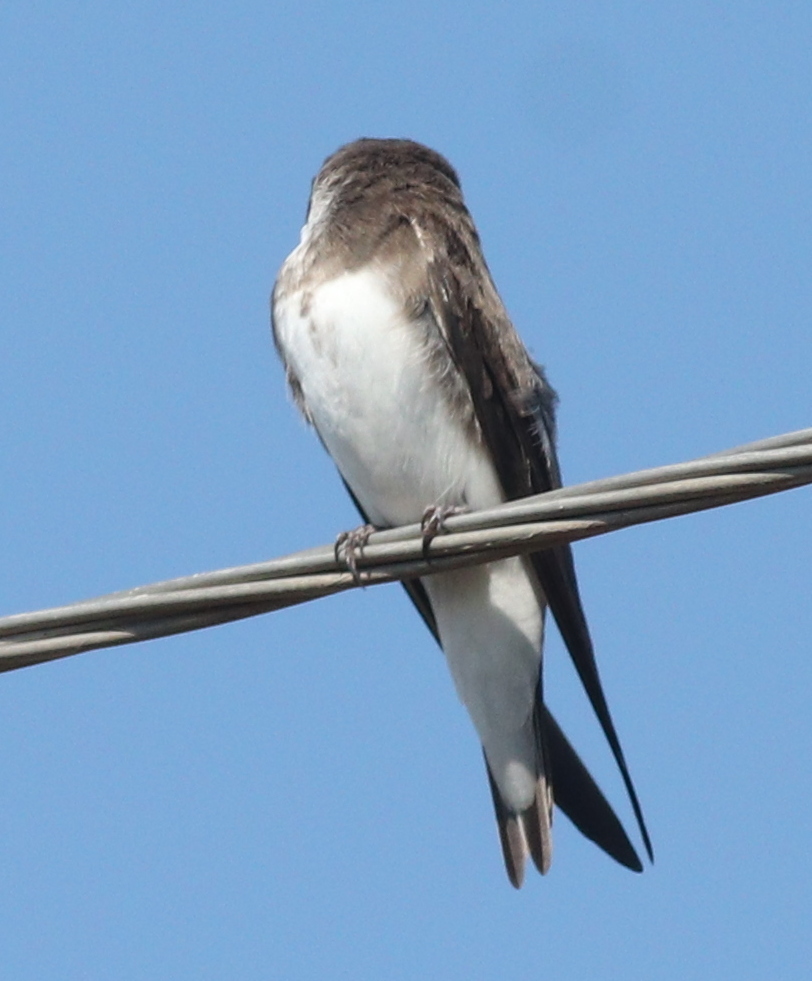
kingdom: Animalia
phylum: Chordata
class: Aves
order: Passeriformes
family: Hirundinidae
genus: Riparia
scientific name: Riparia riparia
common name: Sand martin
